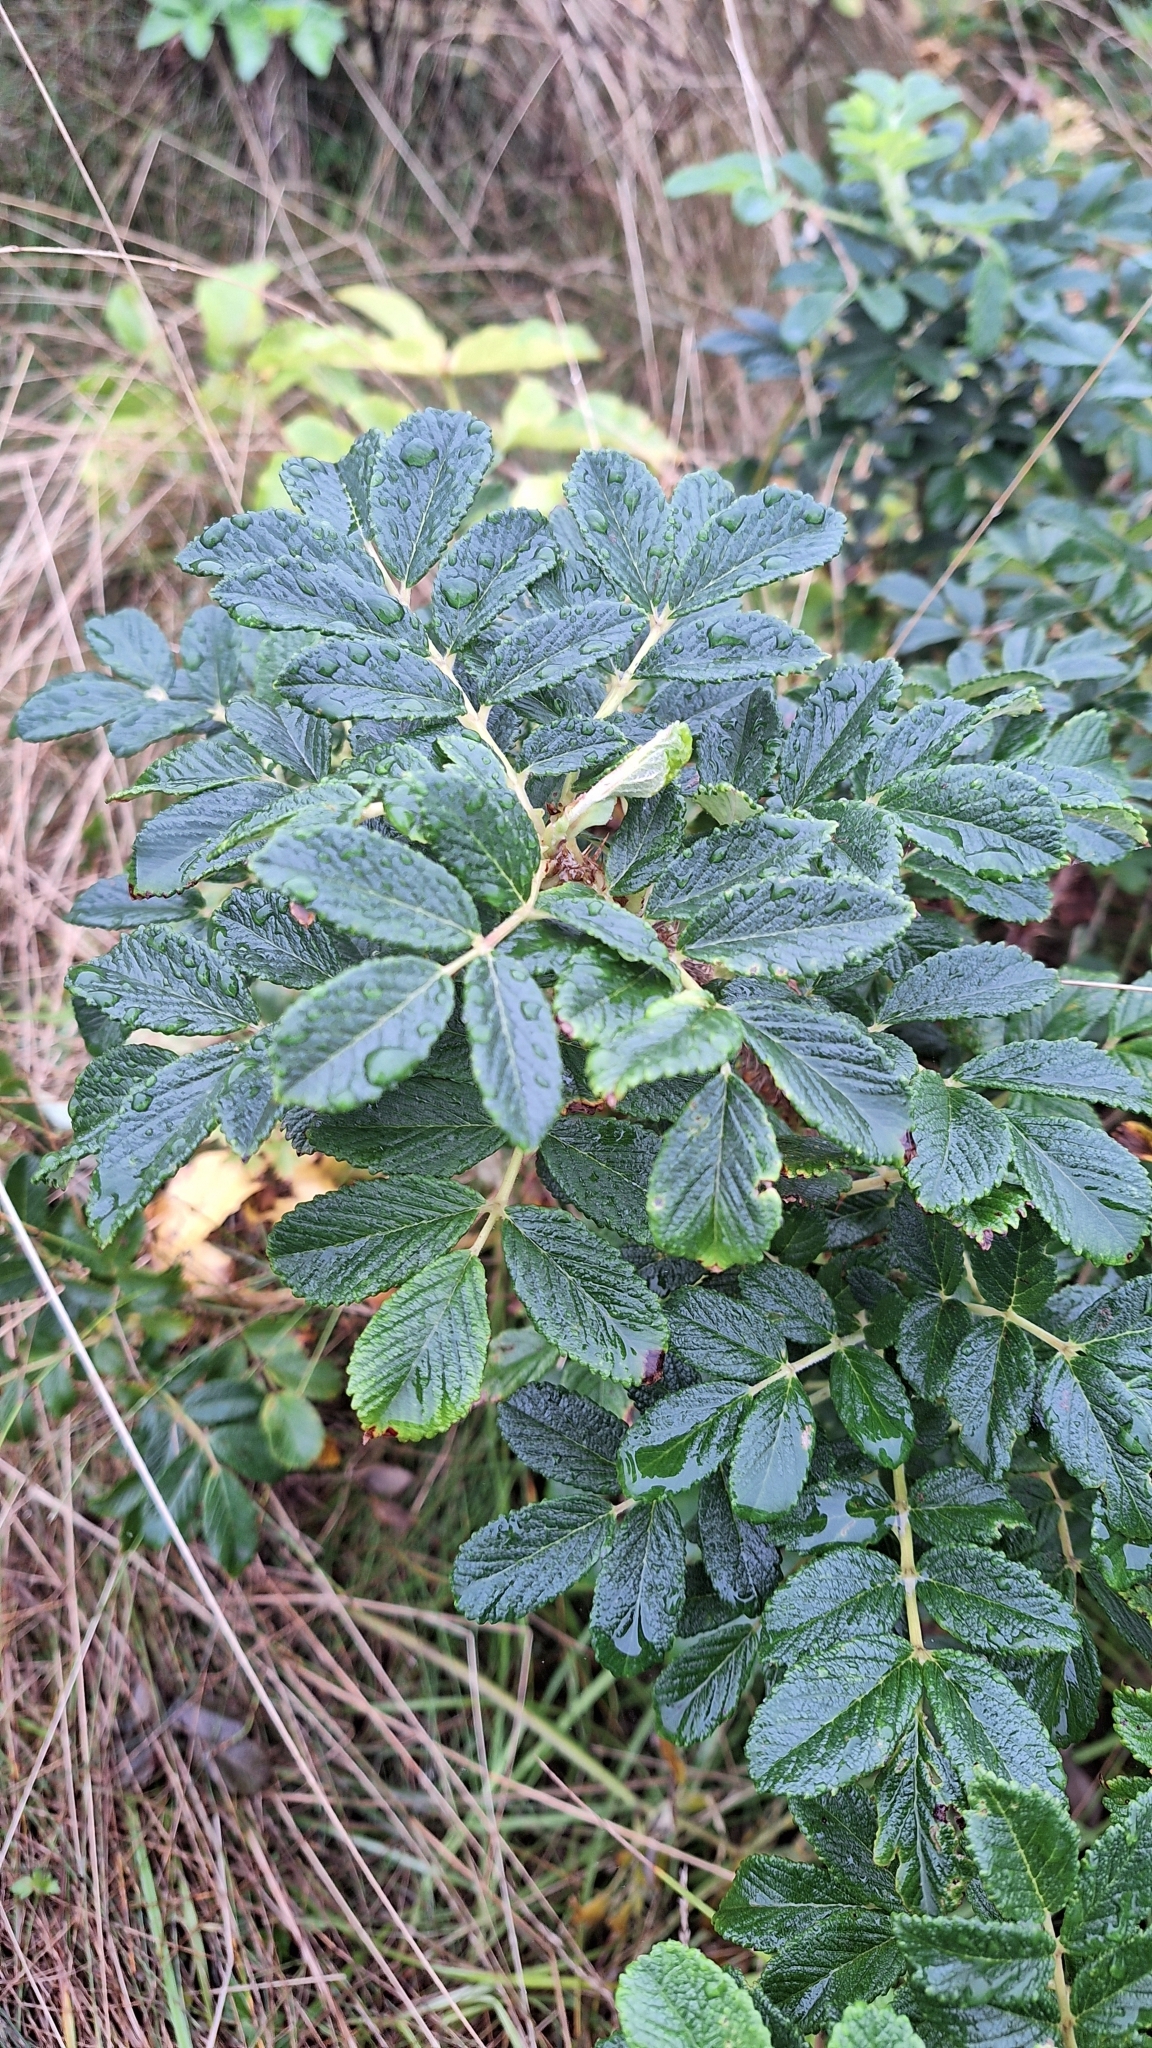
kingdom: Plantae
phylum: Tracheophyta
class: Magnoliopsida
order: Rosales
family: Rosaceae
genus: Rosa
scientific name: Rosa rugosa
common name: Japanese rose
